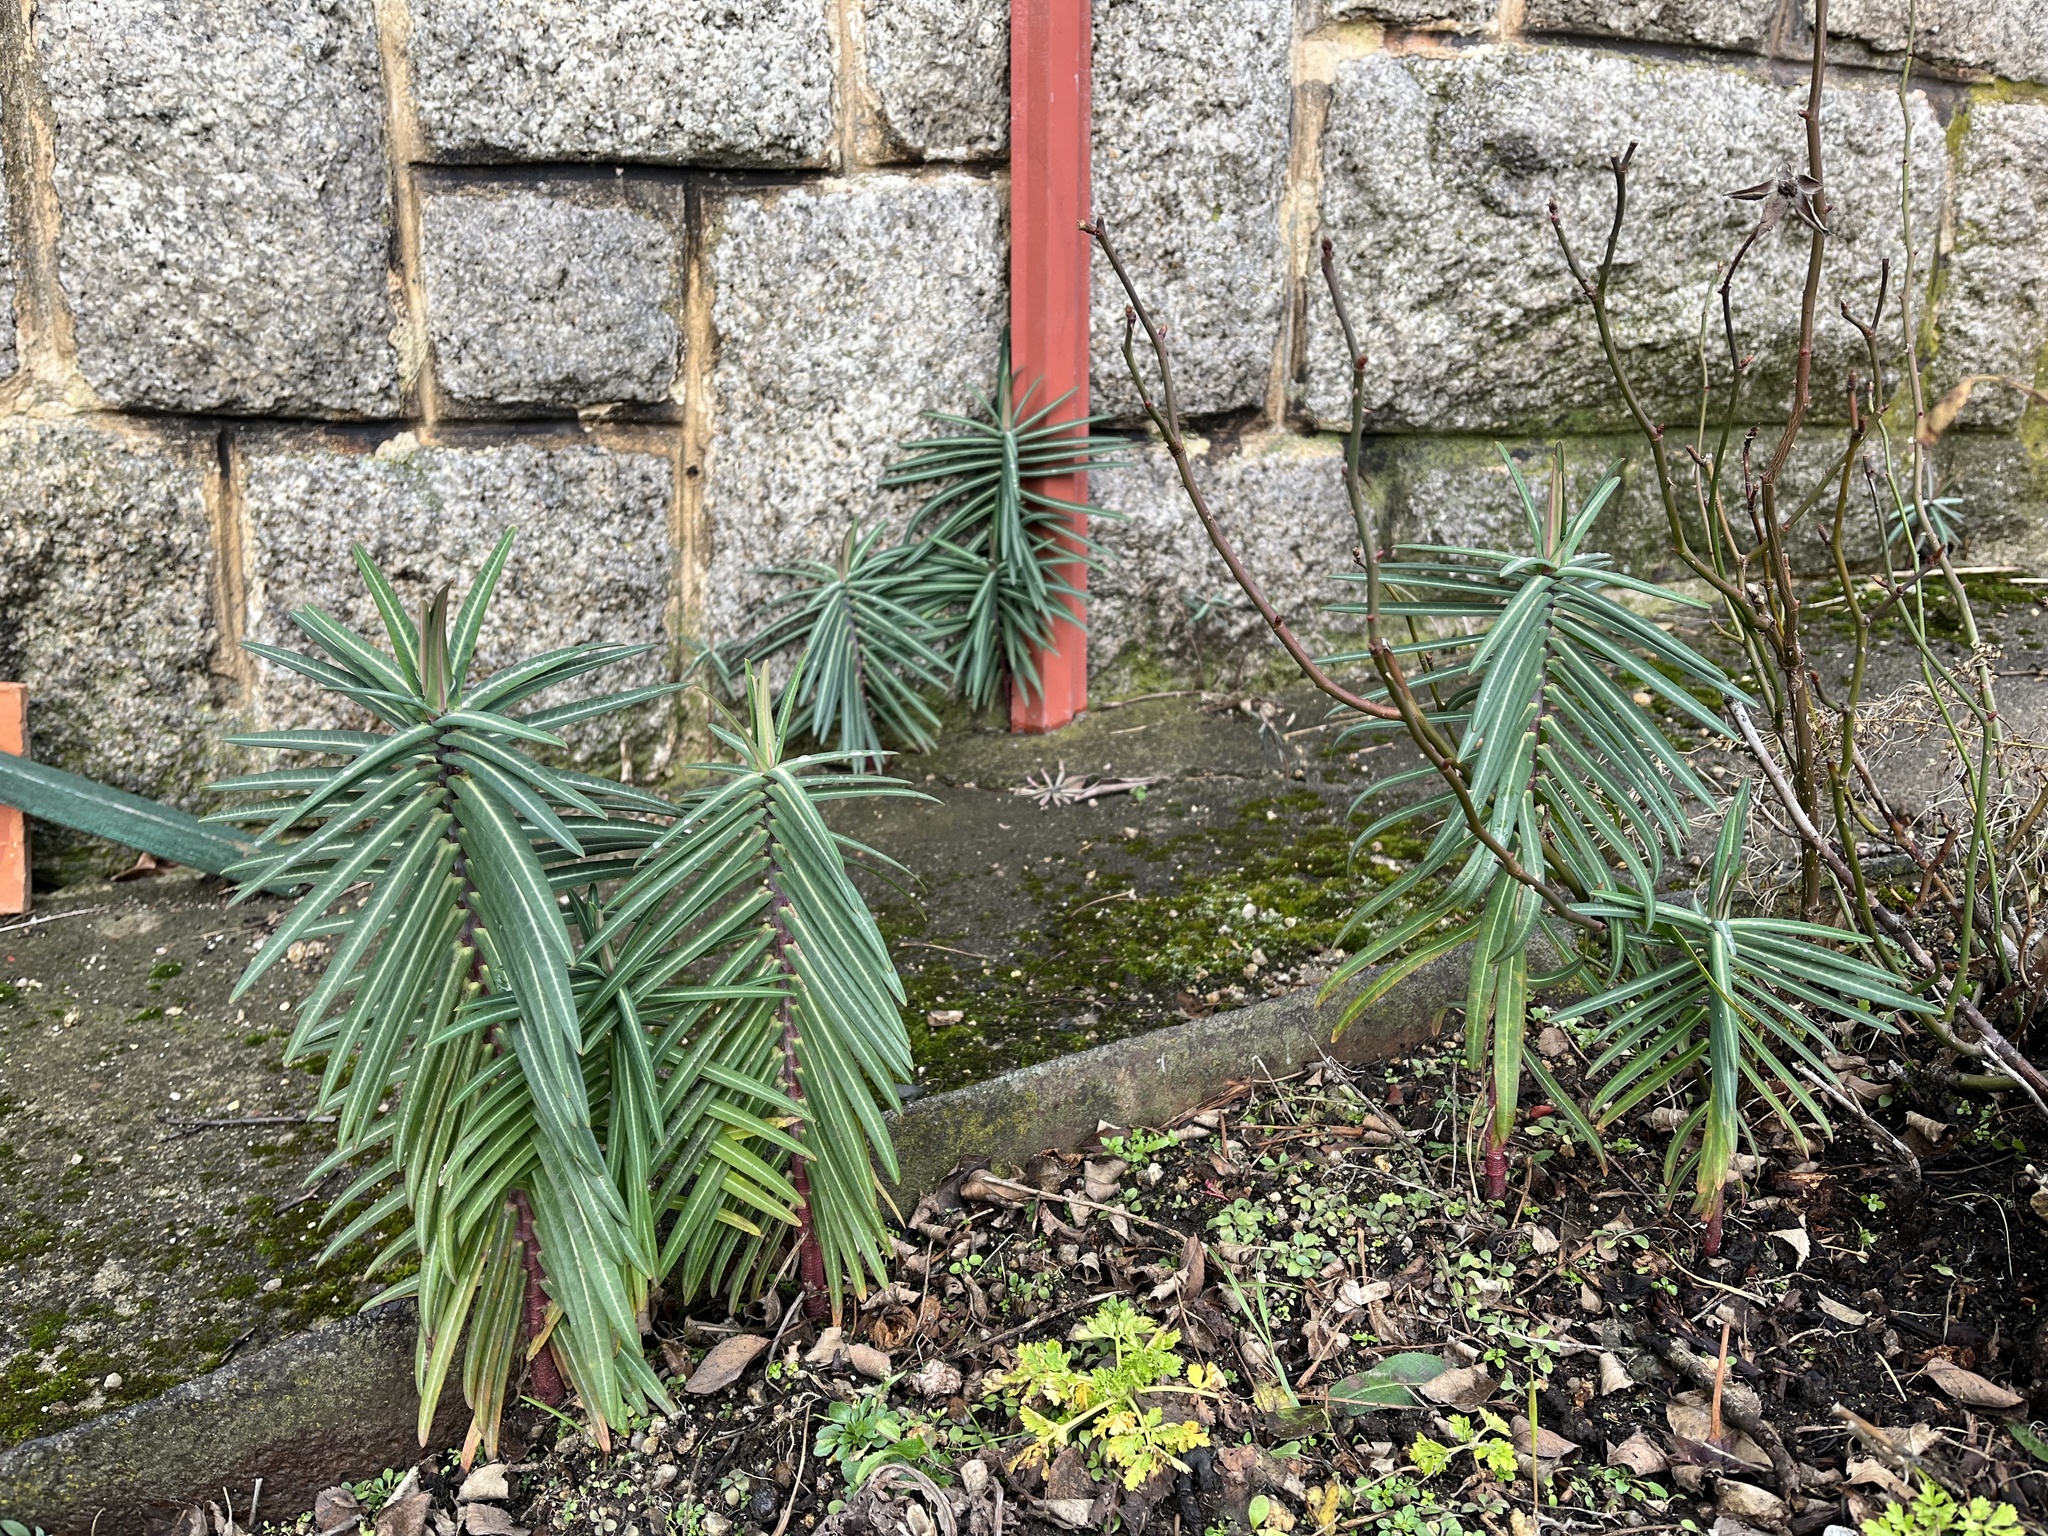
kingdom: Plantae
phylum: Tracheophyta
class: Magnoliopsida
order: Malpighiales
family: Euphorbiaceae
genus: Euphorbia
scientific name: Euphorbia lathyris
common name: Caper spurge
